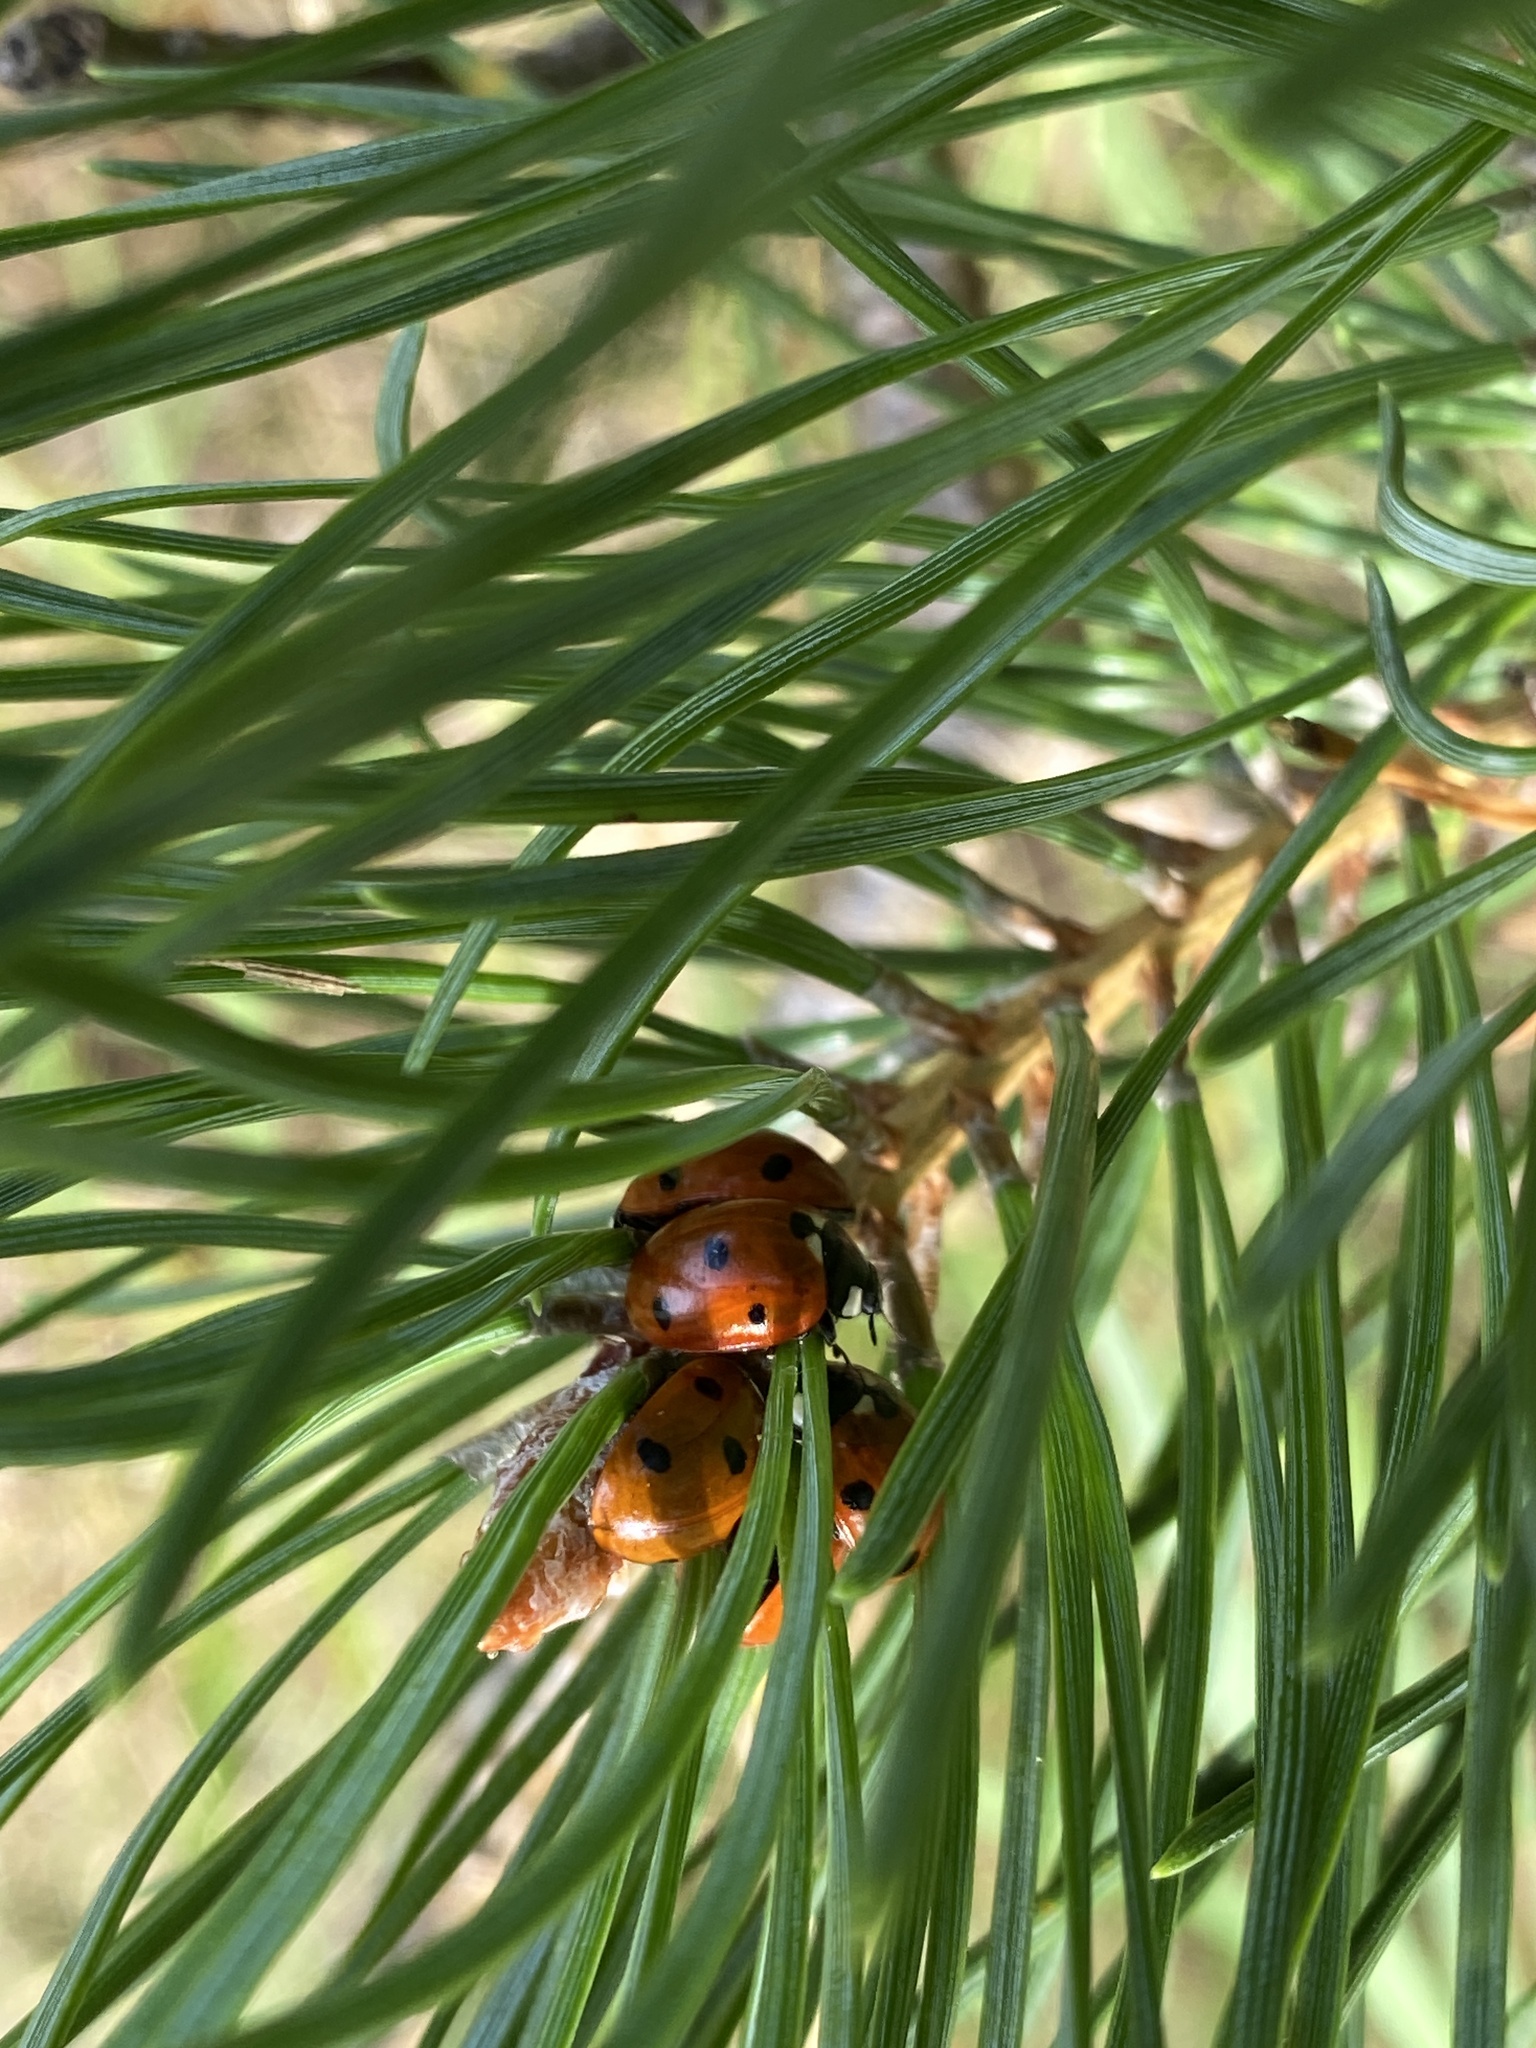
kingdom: Animalia
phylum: Arthropoda
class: Insecta
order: Coleoptera
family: Coccinellidae
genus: Coccinella
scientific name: Coccinella septempunctata
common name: Sevenspotted lady beetle
